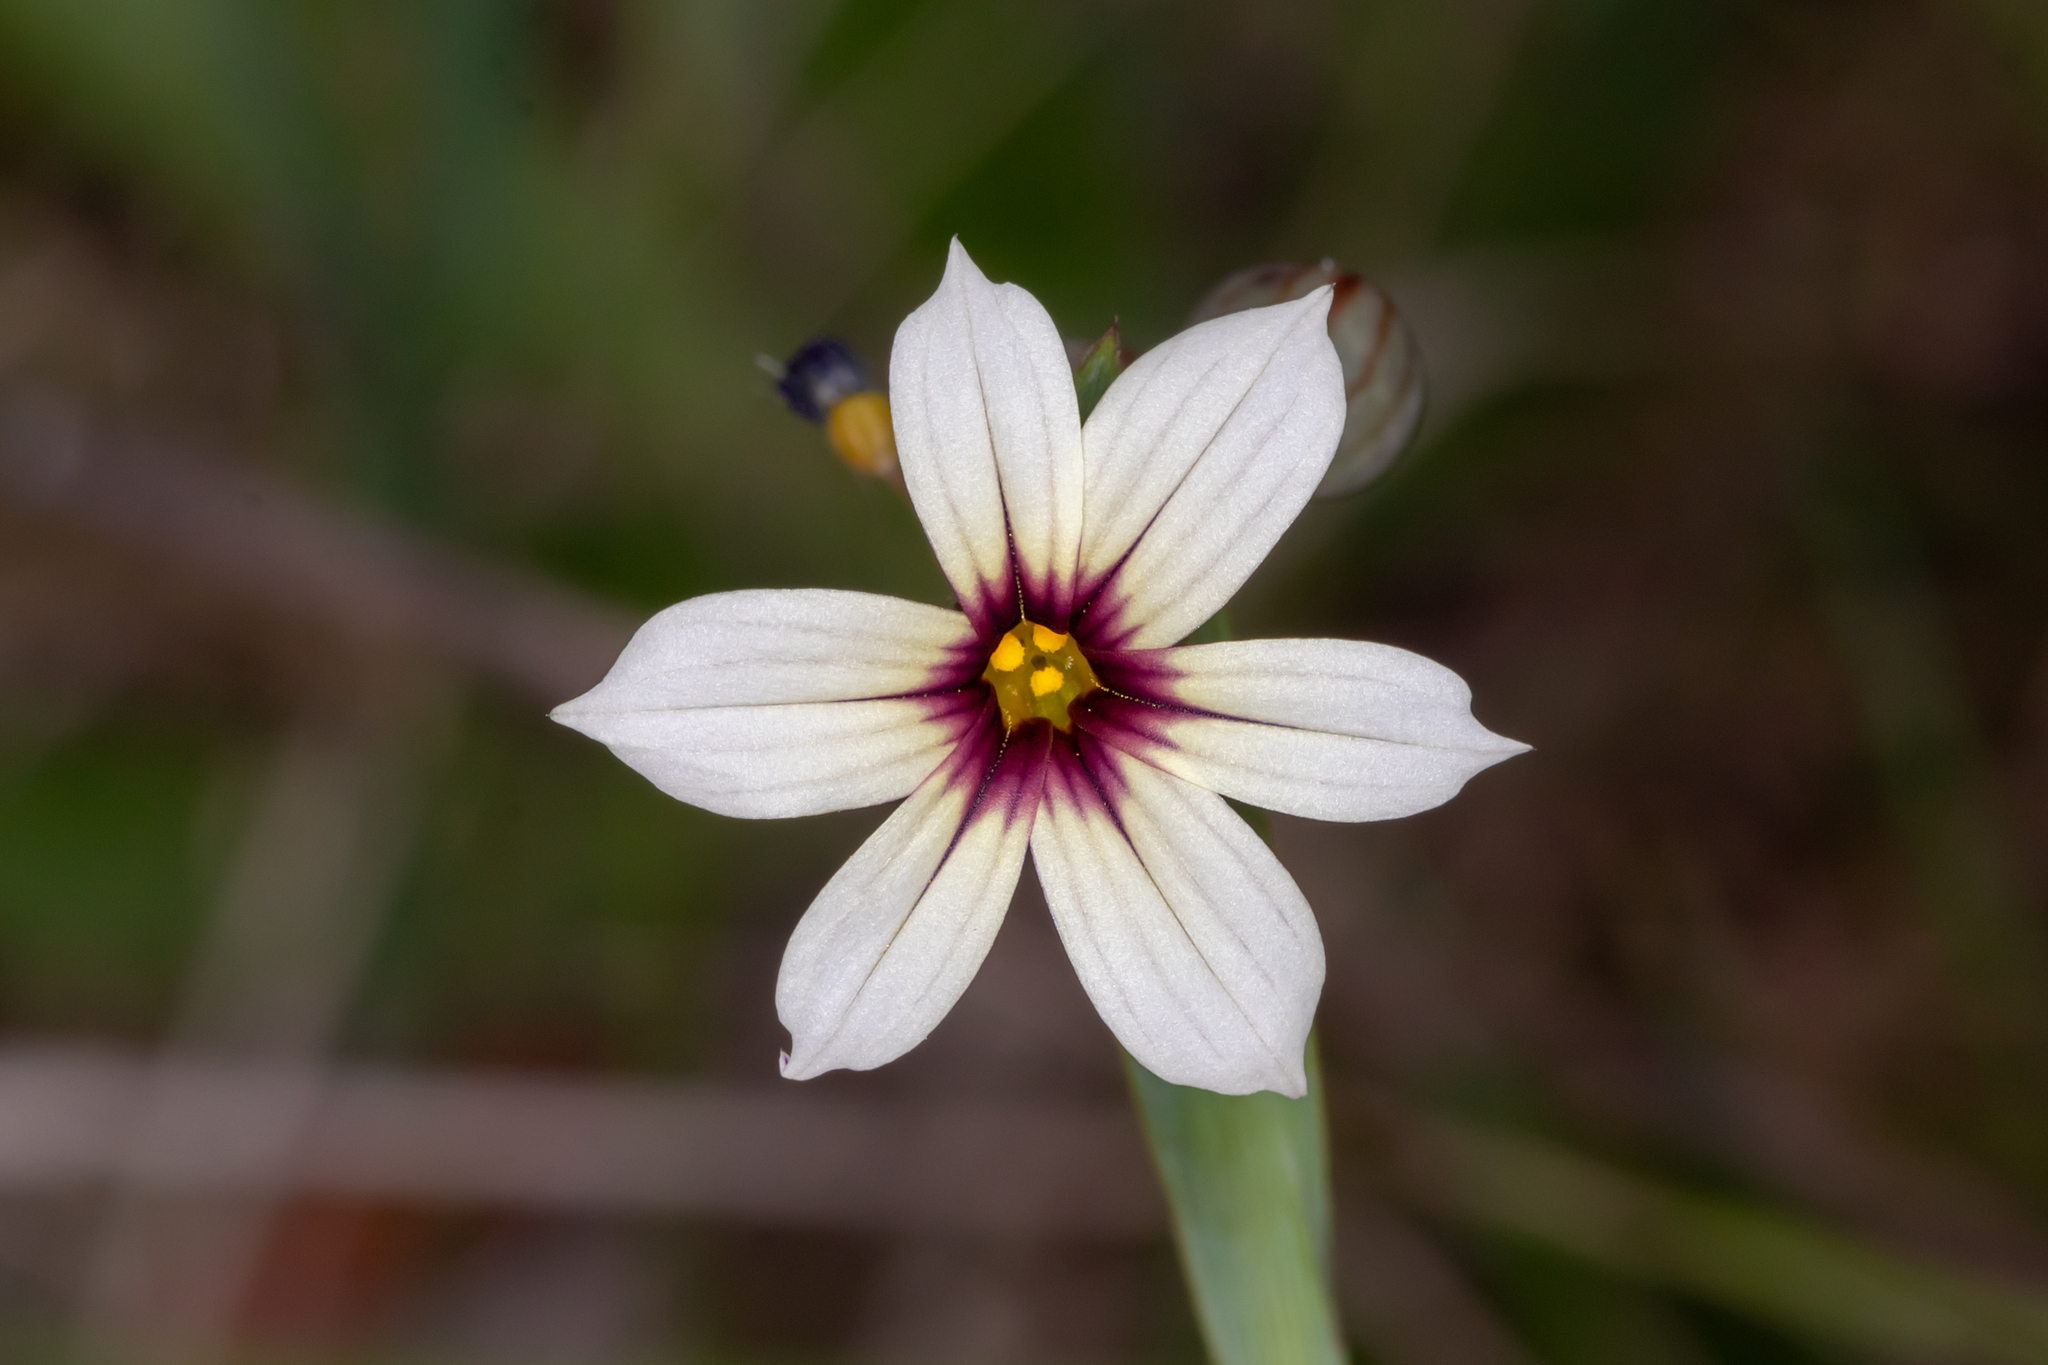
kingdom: Plantae
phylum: Tracheophyta
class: Liliopsida
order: Asparagales
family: Iridaceae
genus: Sisyrinchium
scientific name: Sisyrinchium micranthum
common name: Bermuda pigroot
